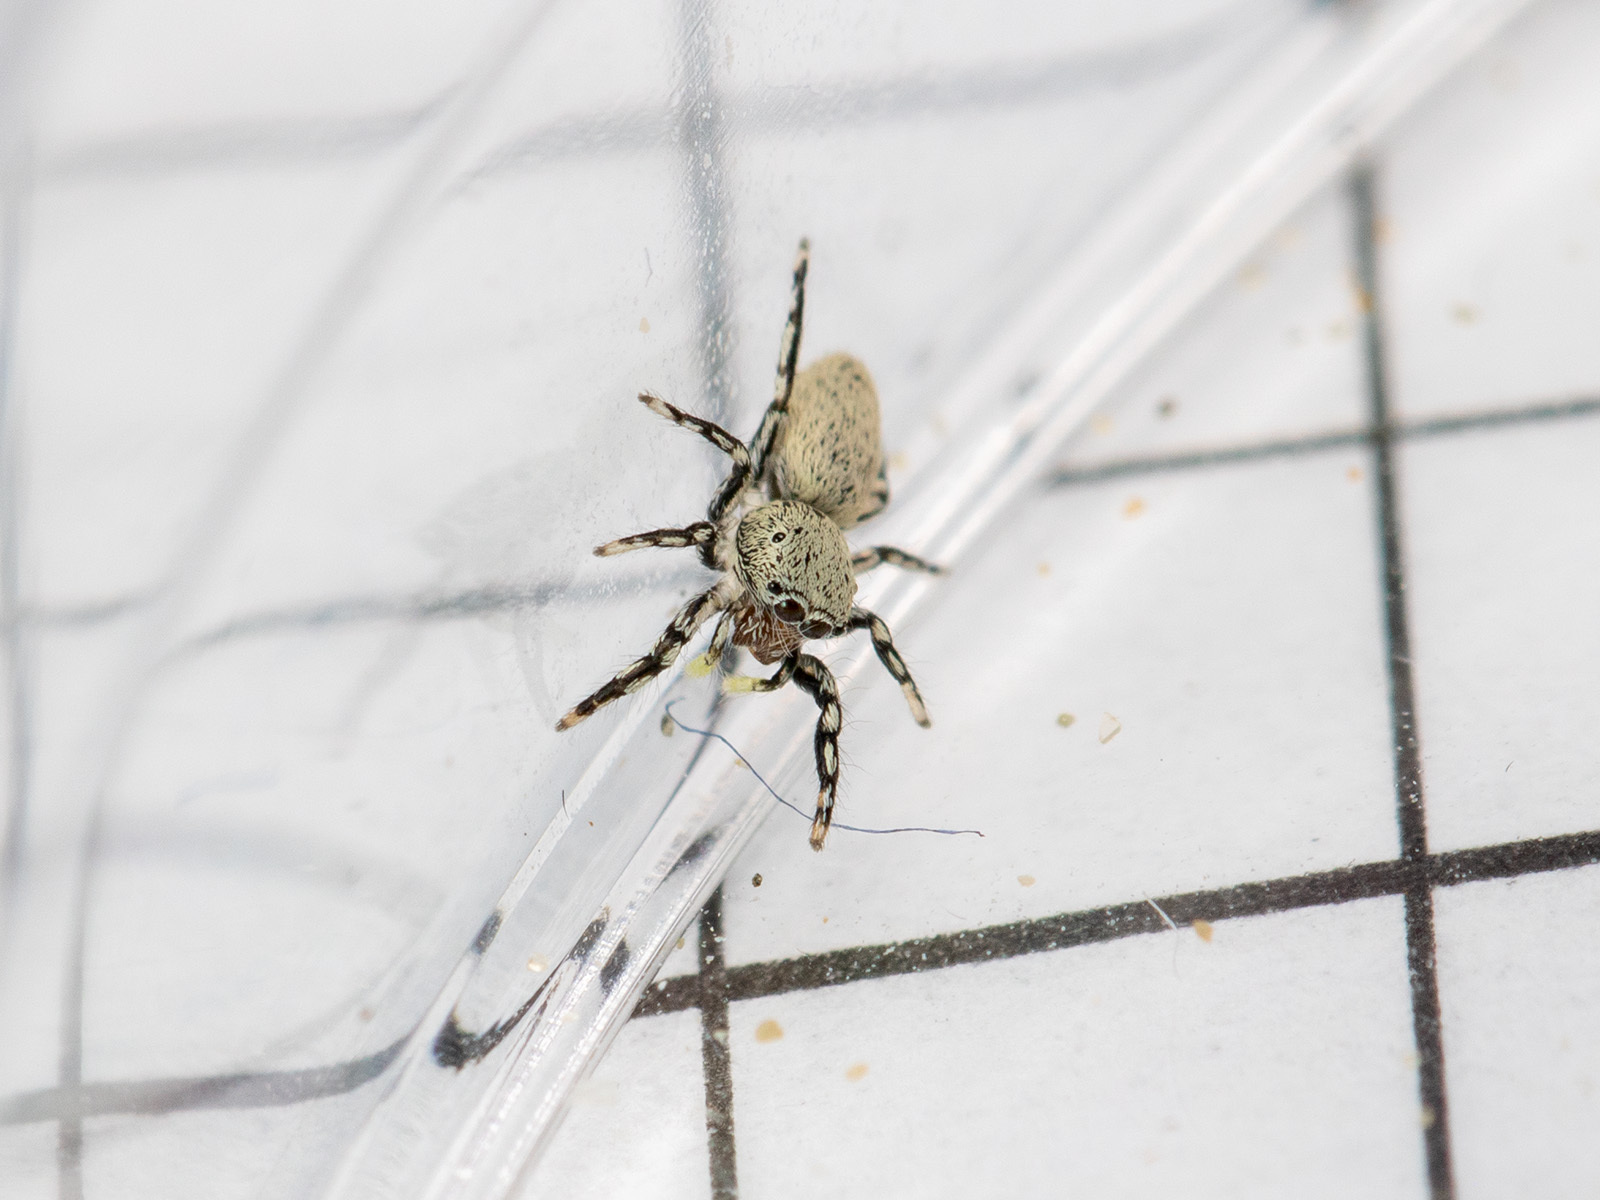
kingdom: Animalia
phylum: Arthropoda
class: Arachnida
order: Araneae
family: Salticidae
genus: Salticus
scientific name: Salticus dzhungaricus
